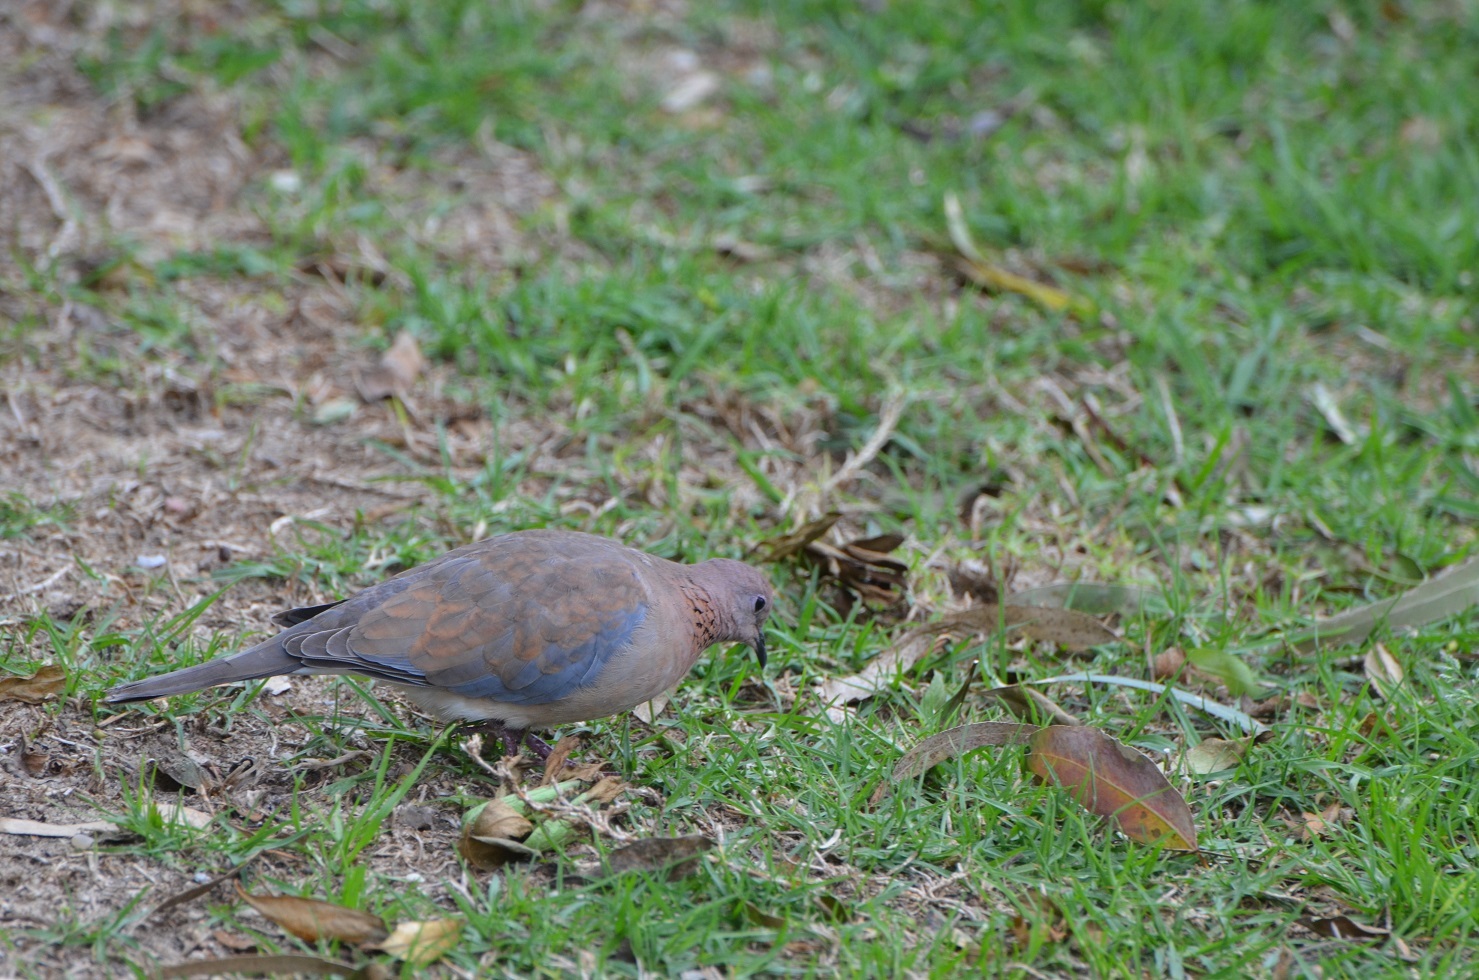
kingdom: Animalia
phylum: Chordata
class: Aves
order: Columbiformes
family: Columbidae
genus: Spilopelia
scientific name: Spilopelia senegalensis
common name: Laughing dove
